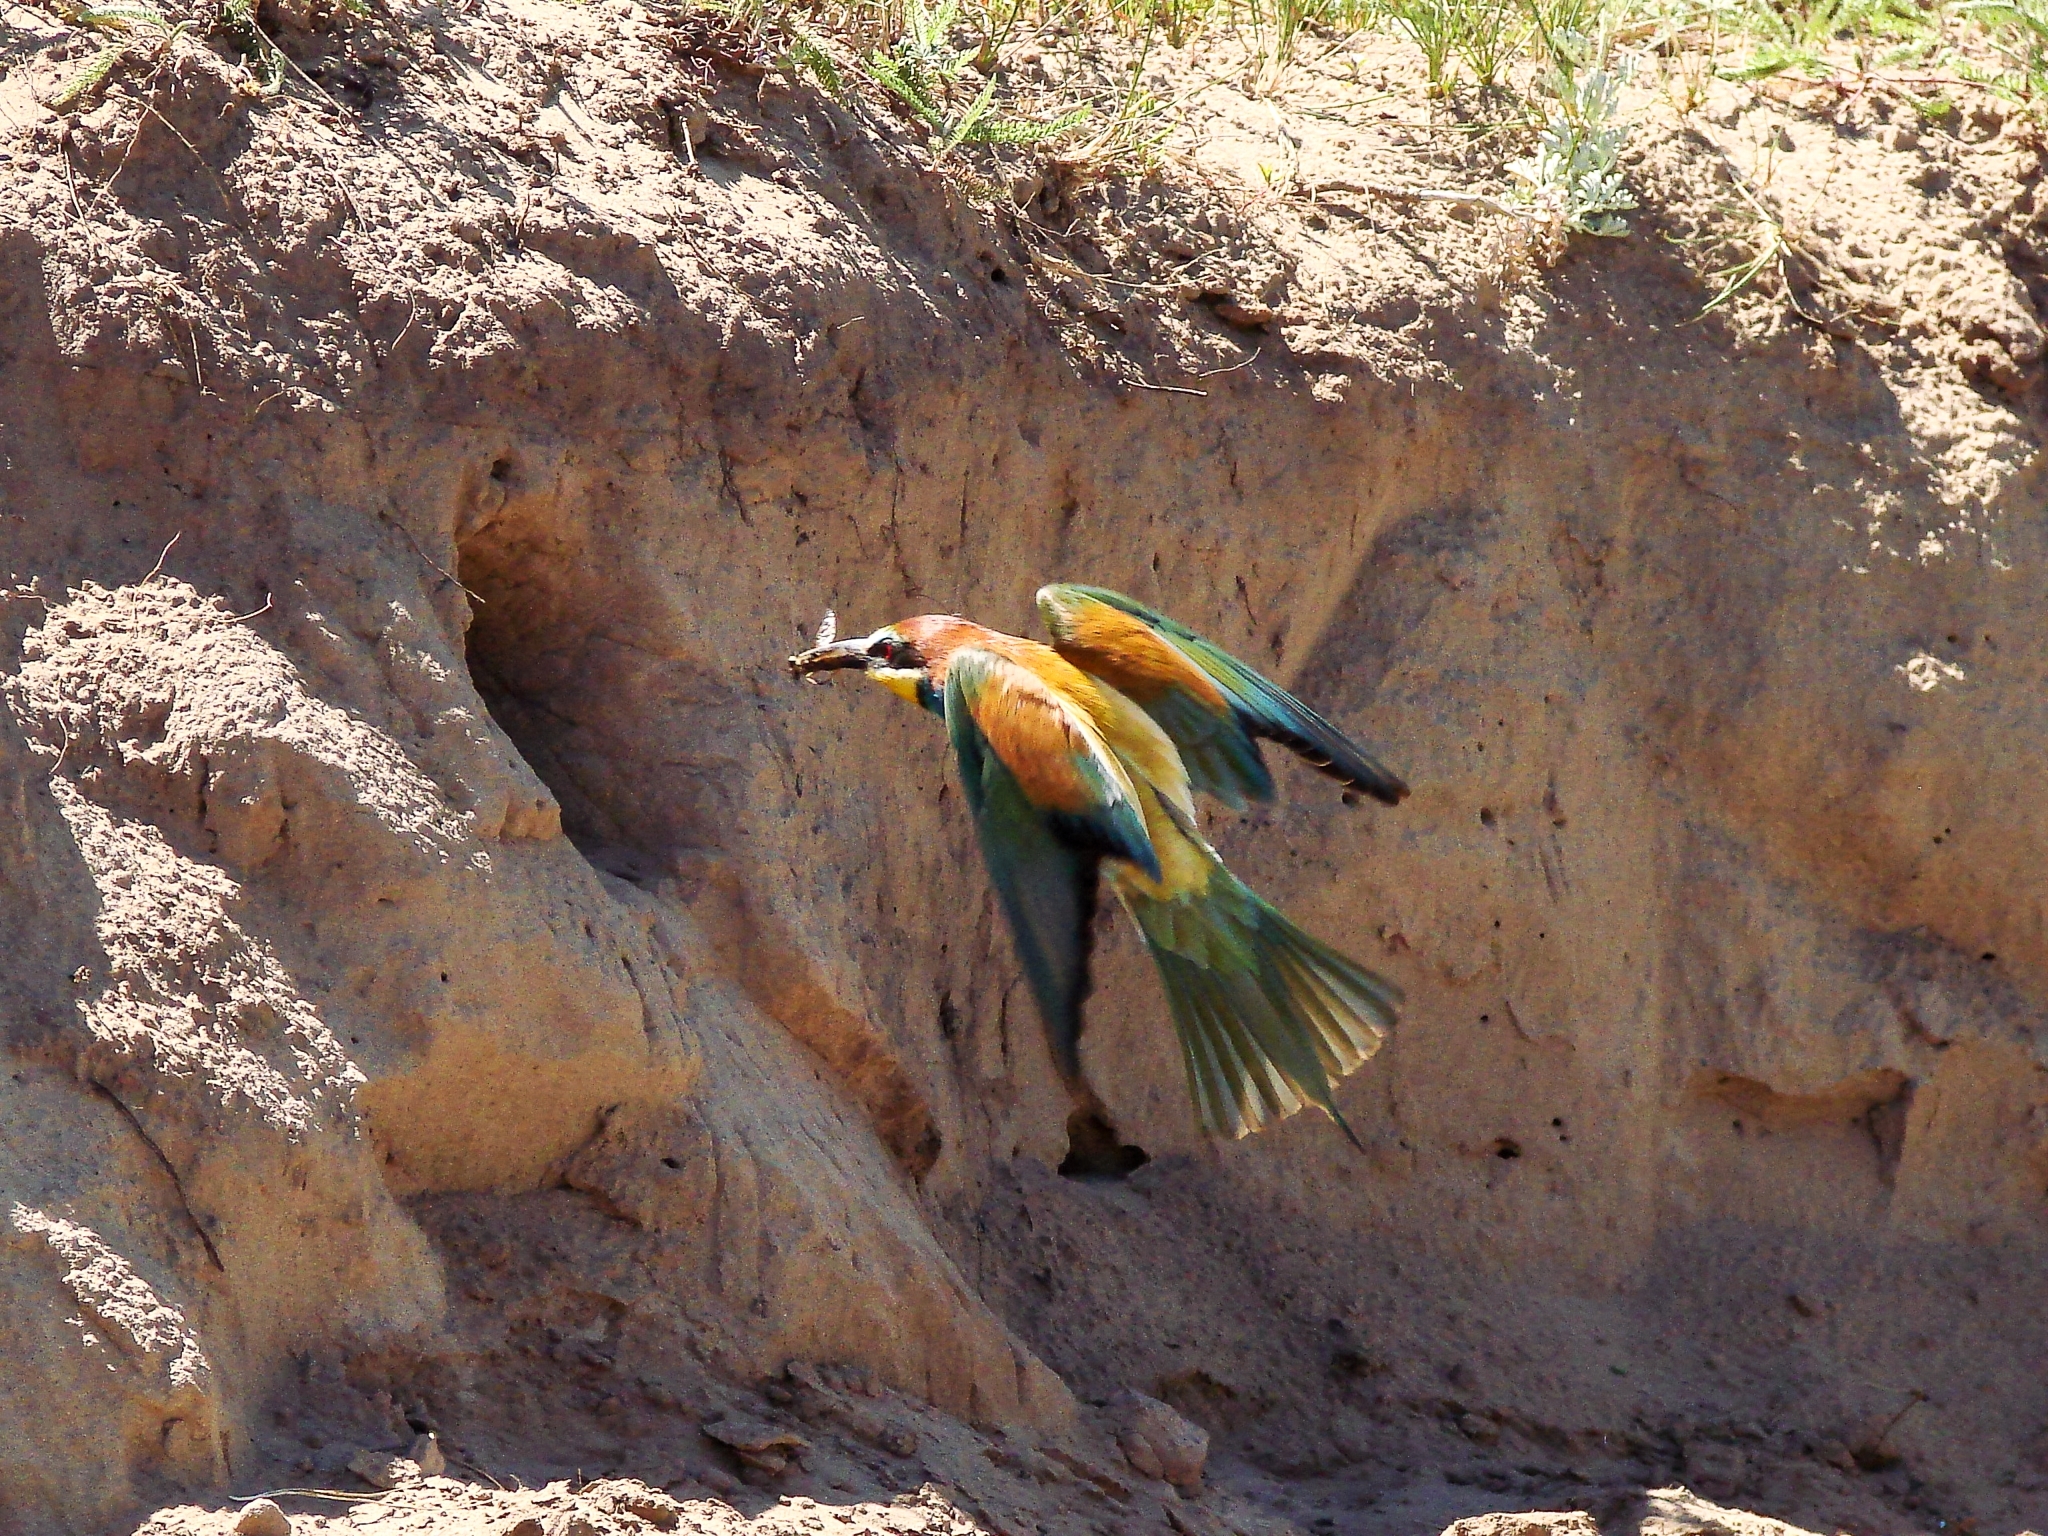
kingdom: Animalia
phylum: Chordata
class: Aves
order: Coraciiformes
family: Meropidae
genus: Merops
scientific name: Merops apiaster
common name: European bee-eater
